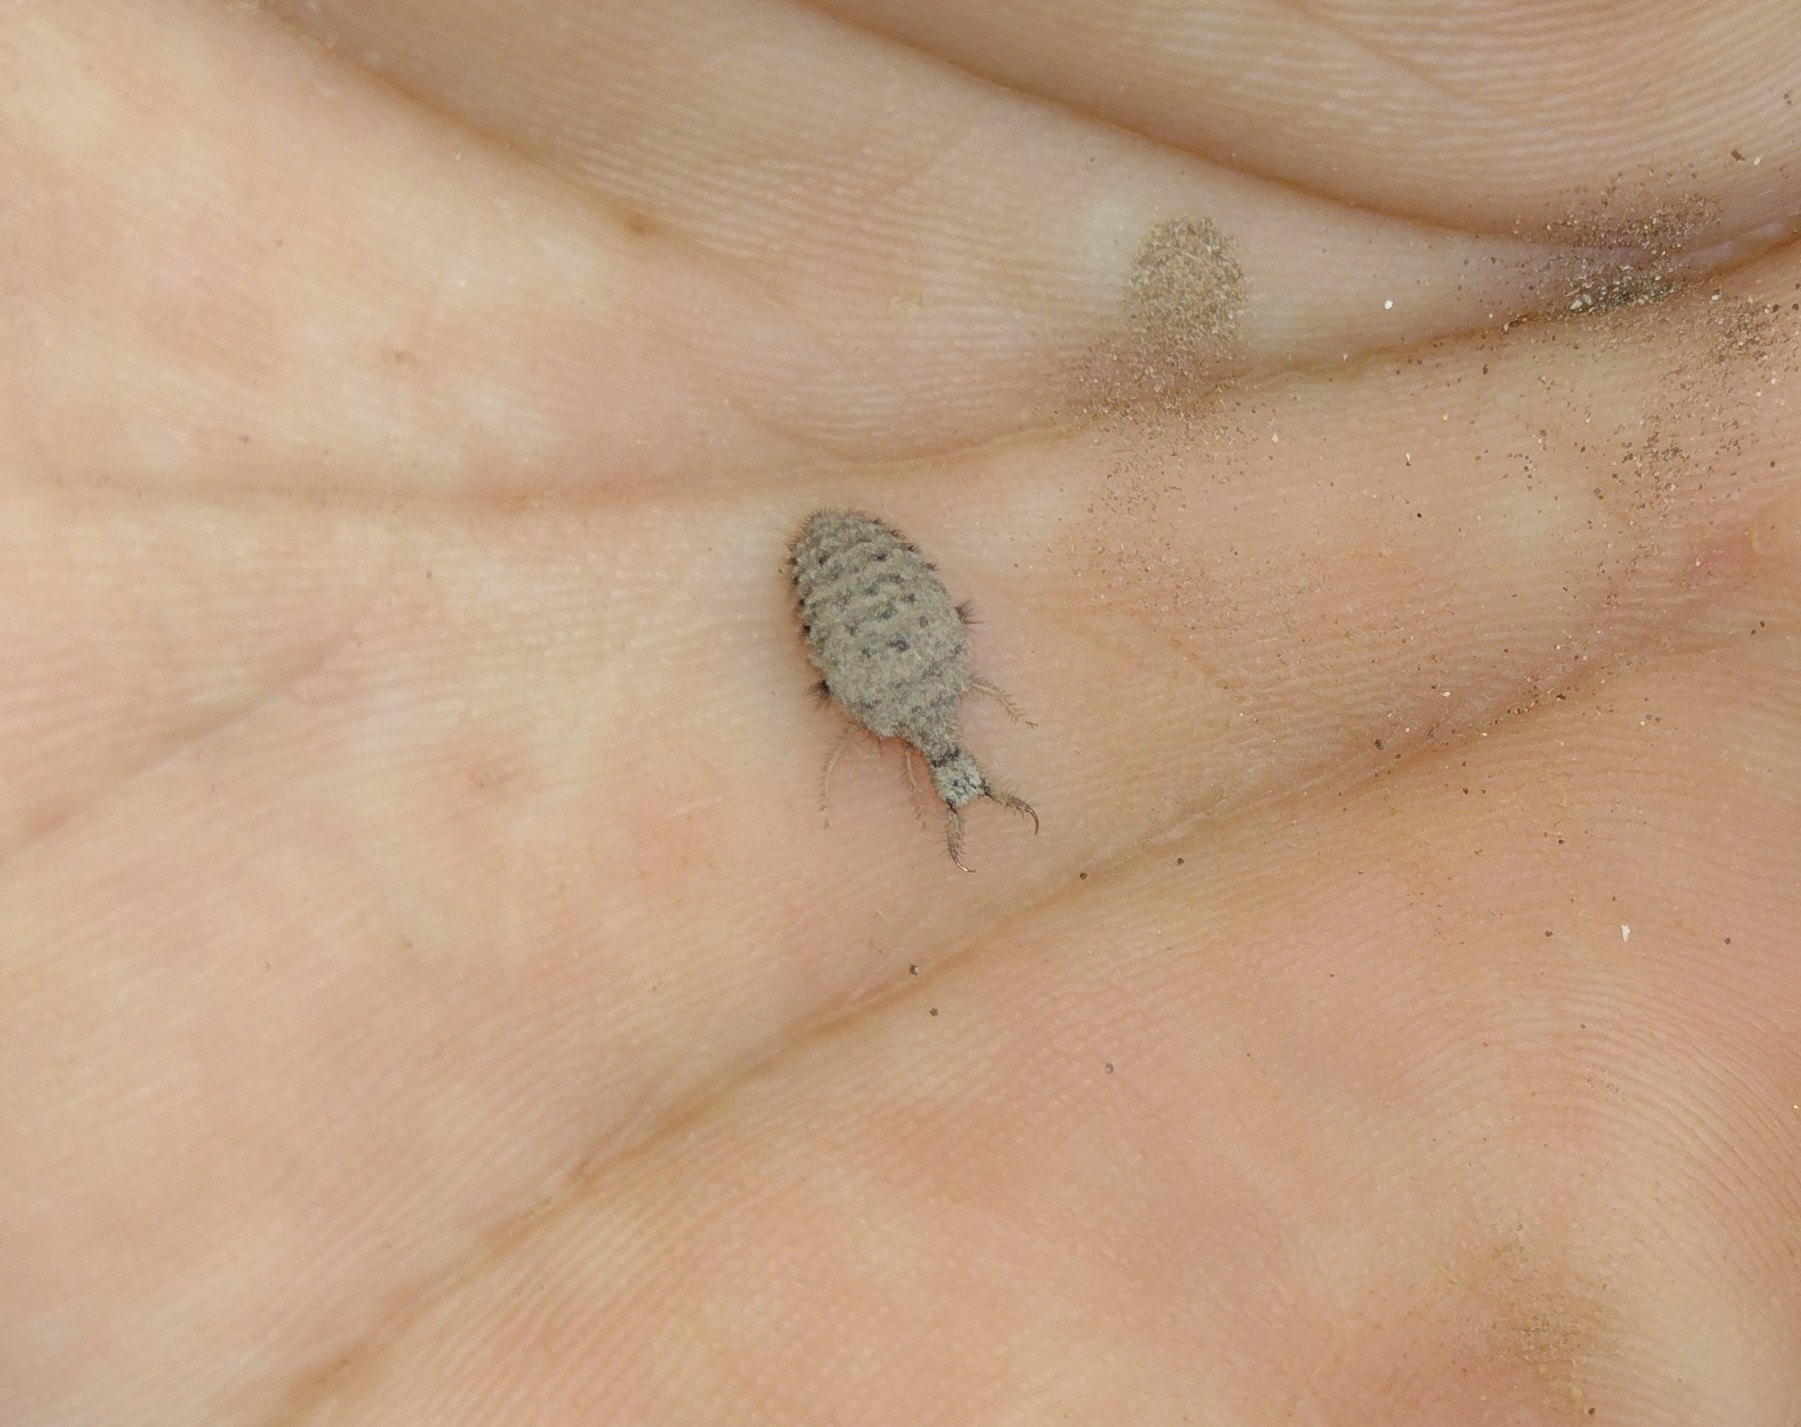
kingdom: Animalia
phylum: Arthropoda
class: Insecta
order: Neuroptera
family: Myrmeleontidae
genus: Myrmeleon
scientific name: Myrmeleon immaculatus
